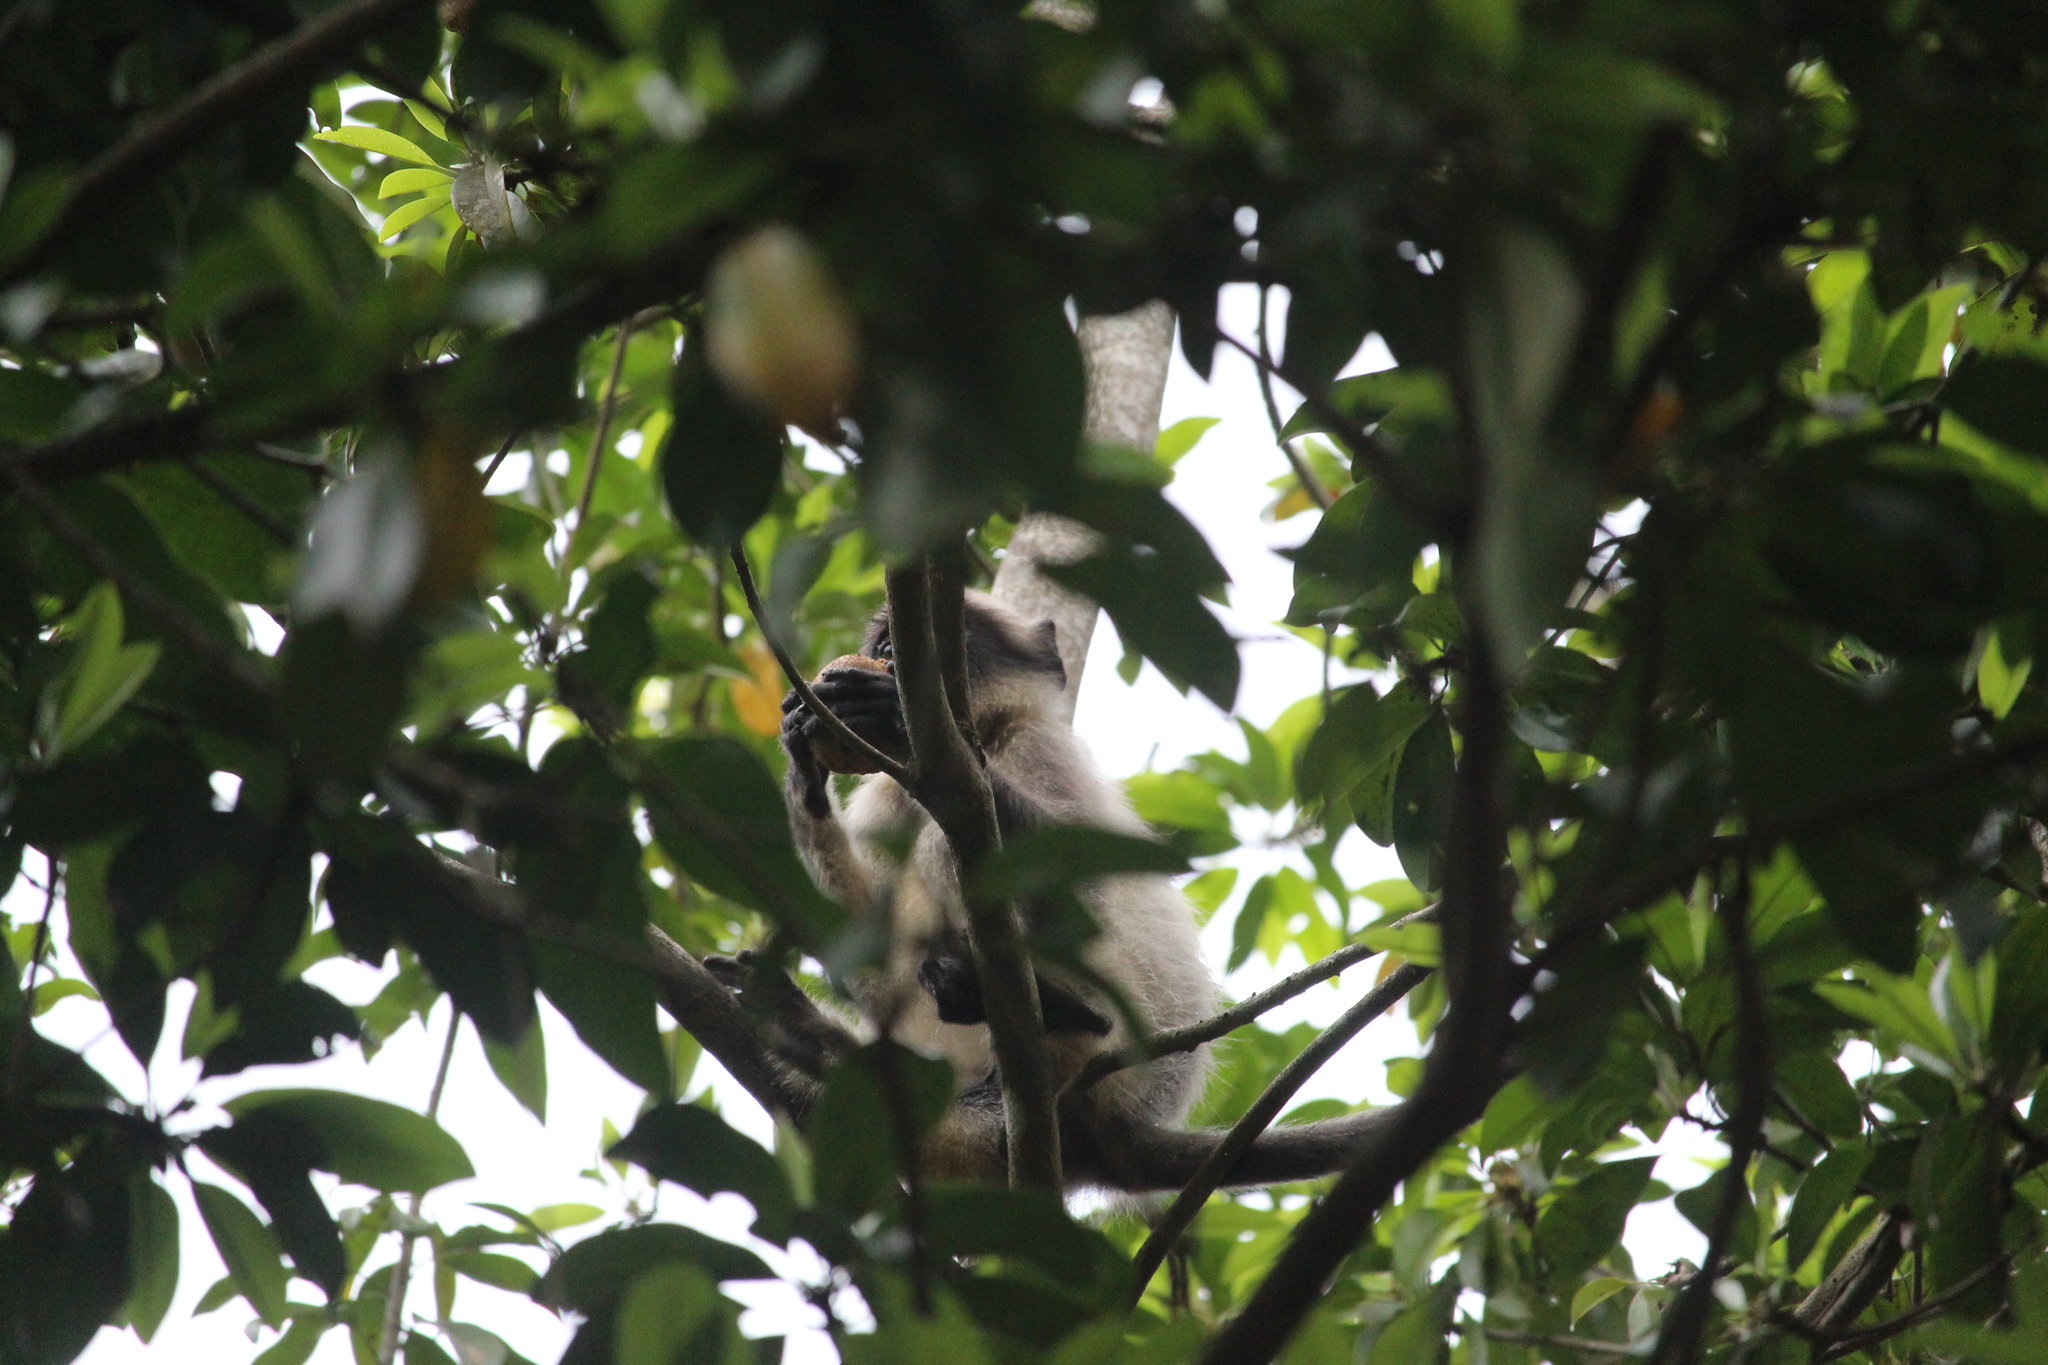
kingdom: Animalia
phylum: Chordata
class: Mammalia
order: Primates
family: Cercopithecidae
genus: Semnopithecus
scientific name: Semnopithecus hypoleucos
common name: Black-footed gray langur
